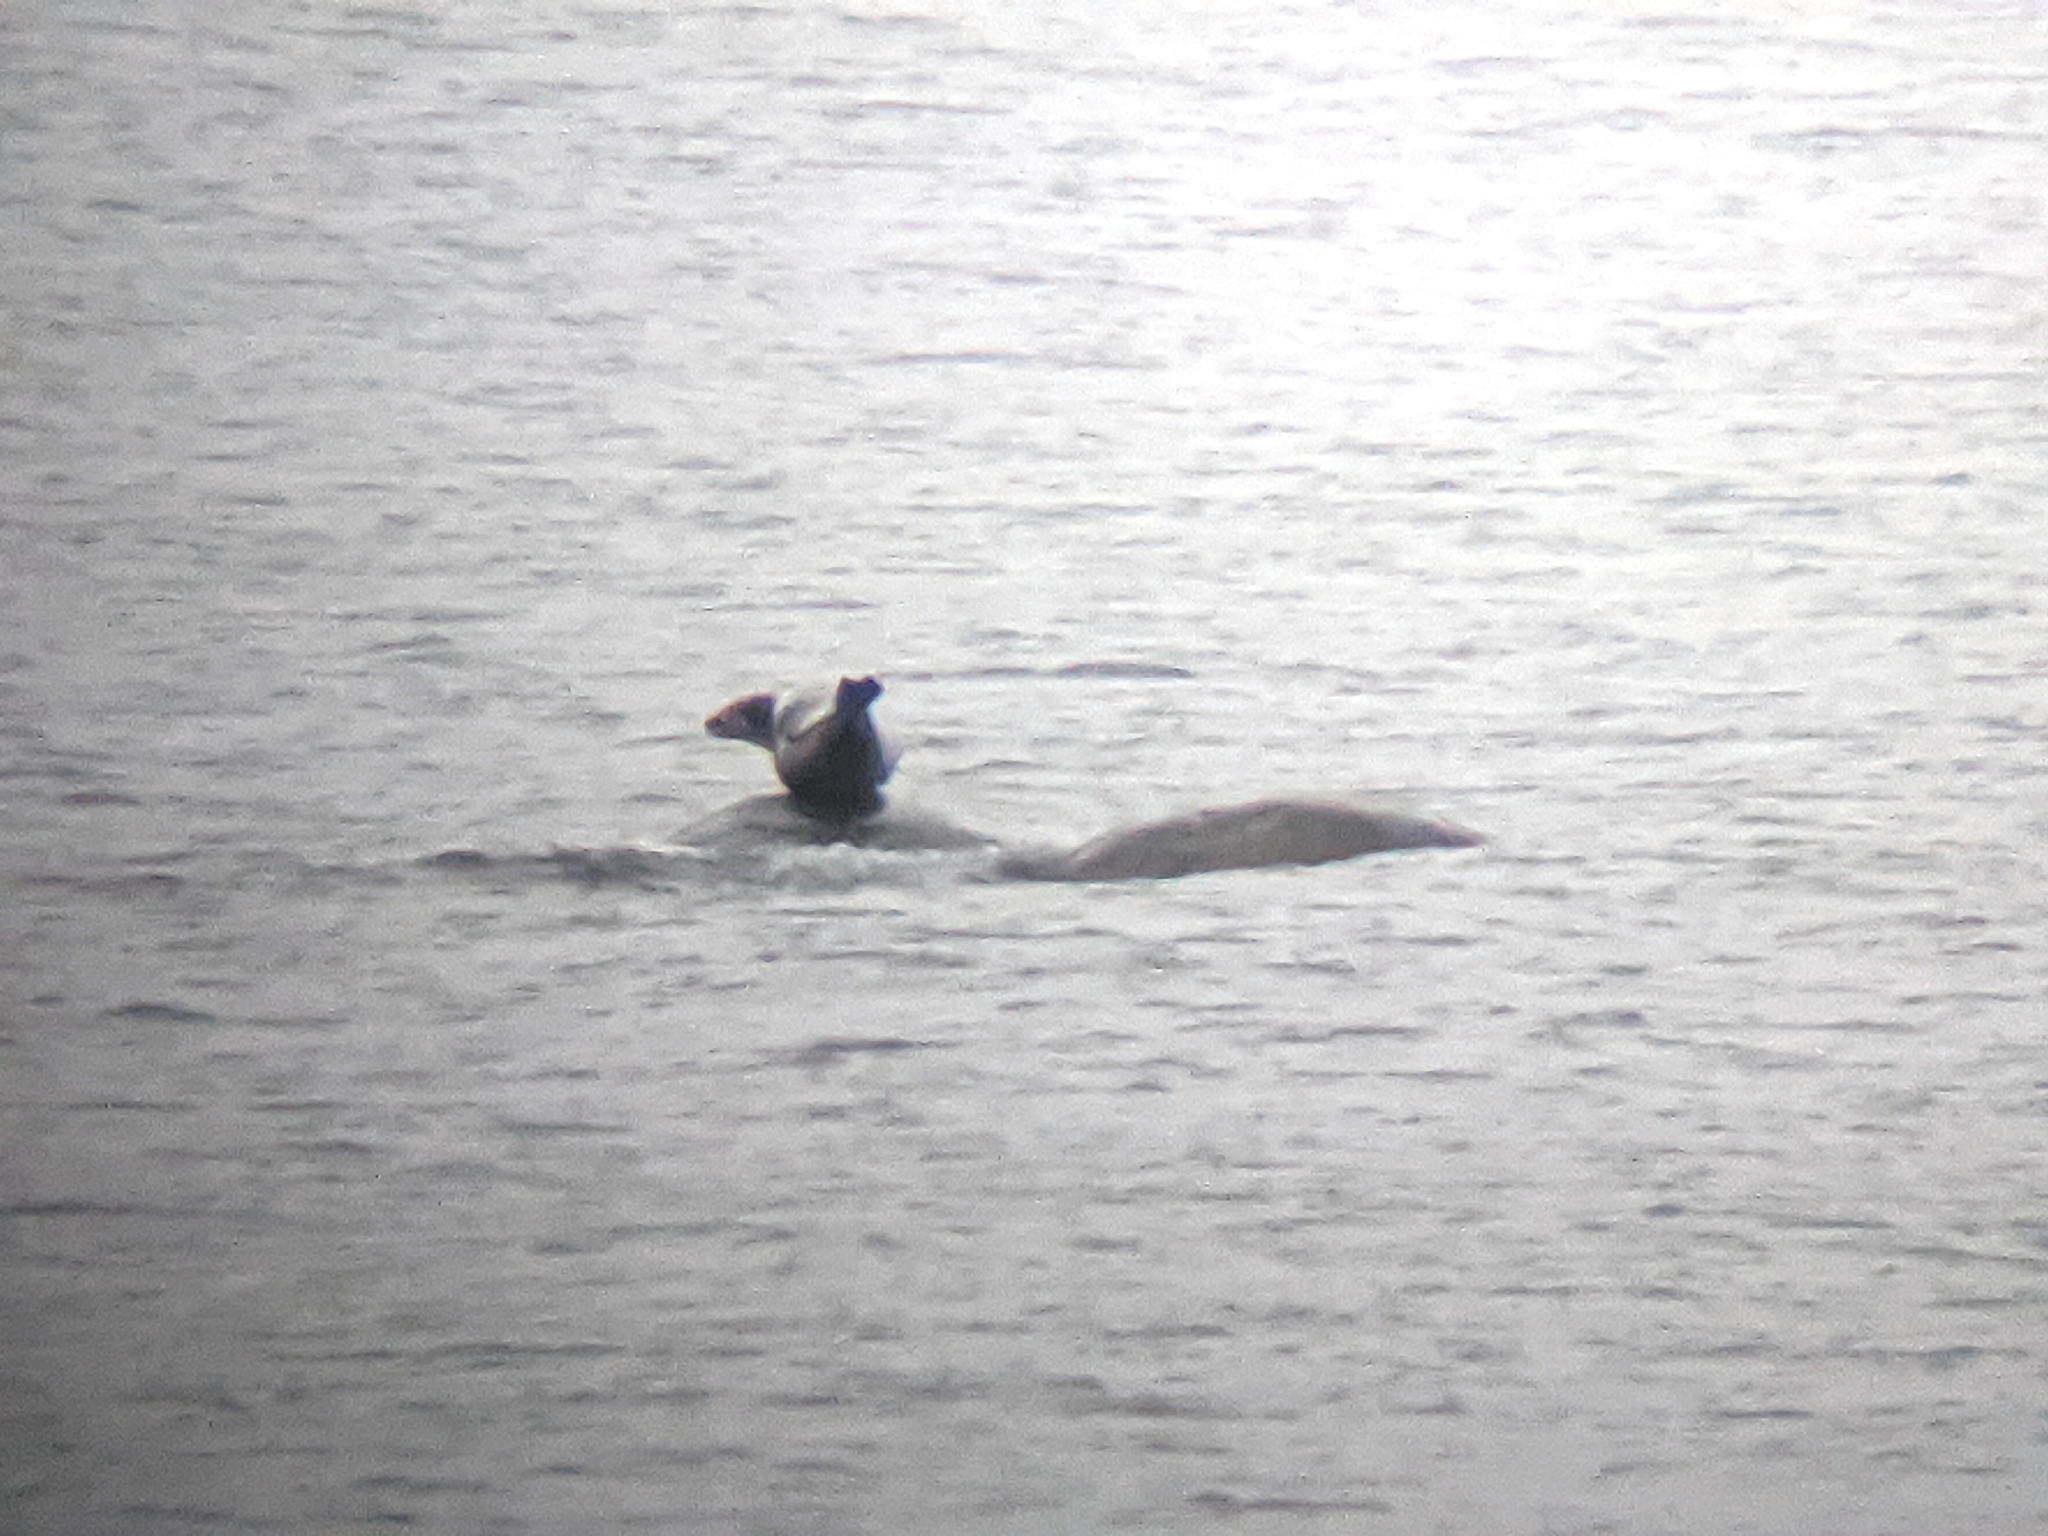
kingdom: Animalia
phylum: Chordata
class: Mammalia
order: Carnivora
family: Phocidae
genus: Phoca
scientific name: Phoca vitulina
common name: Harbor seal
